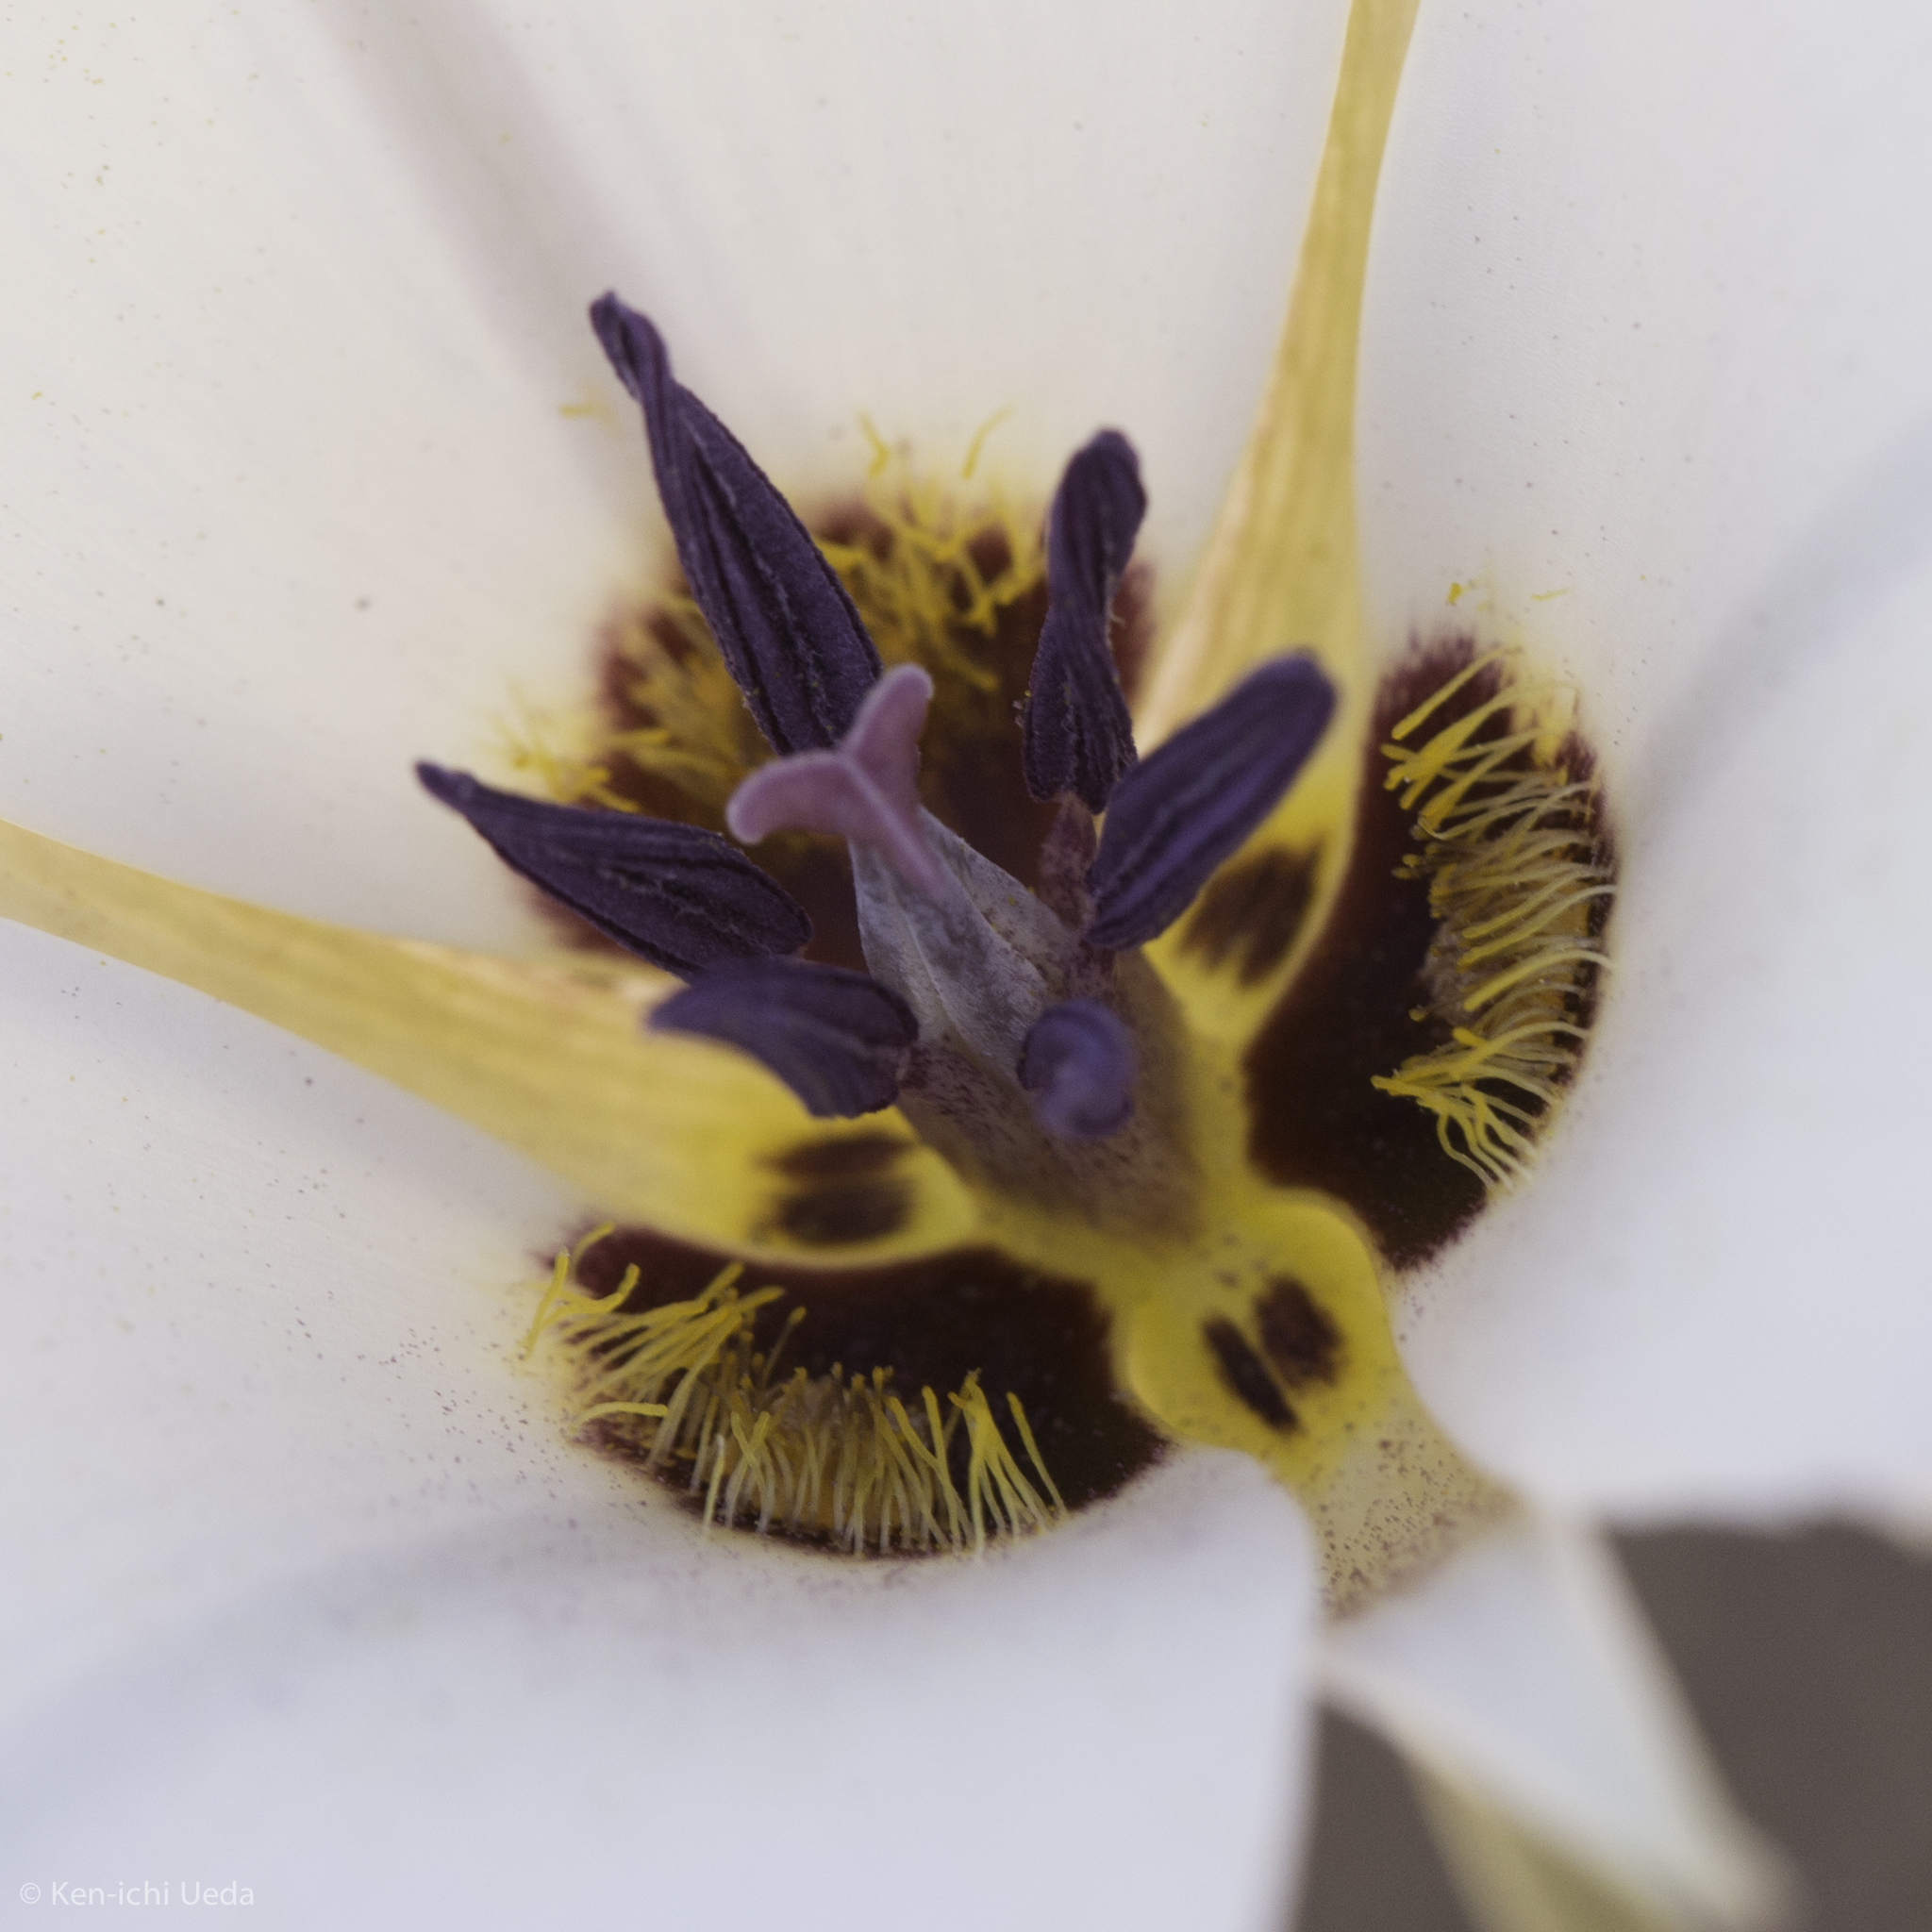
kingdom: Plantae
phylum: Tracheophyta
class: Liliopsida
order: Liliales
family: Liliaceae
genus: Calochortus
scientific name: Calochortus invenustus
